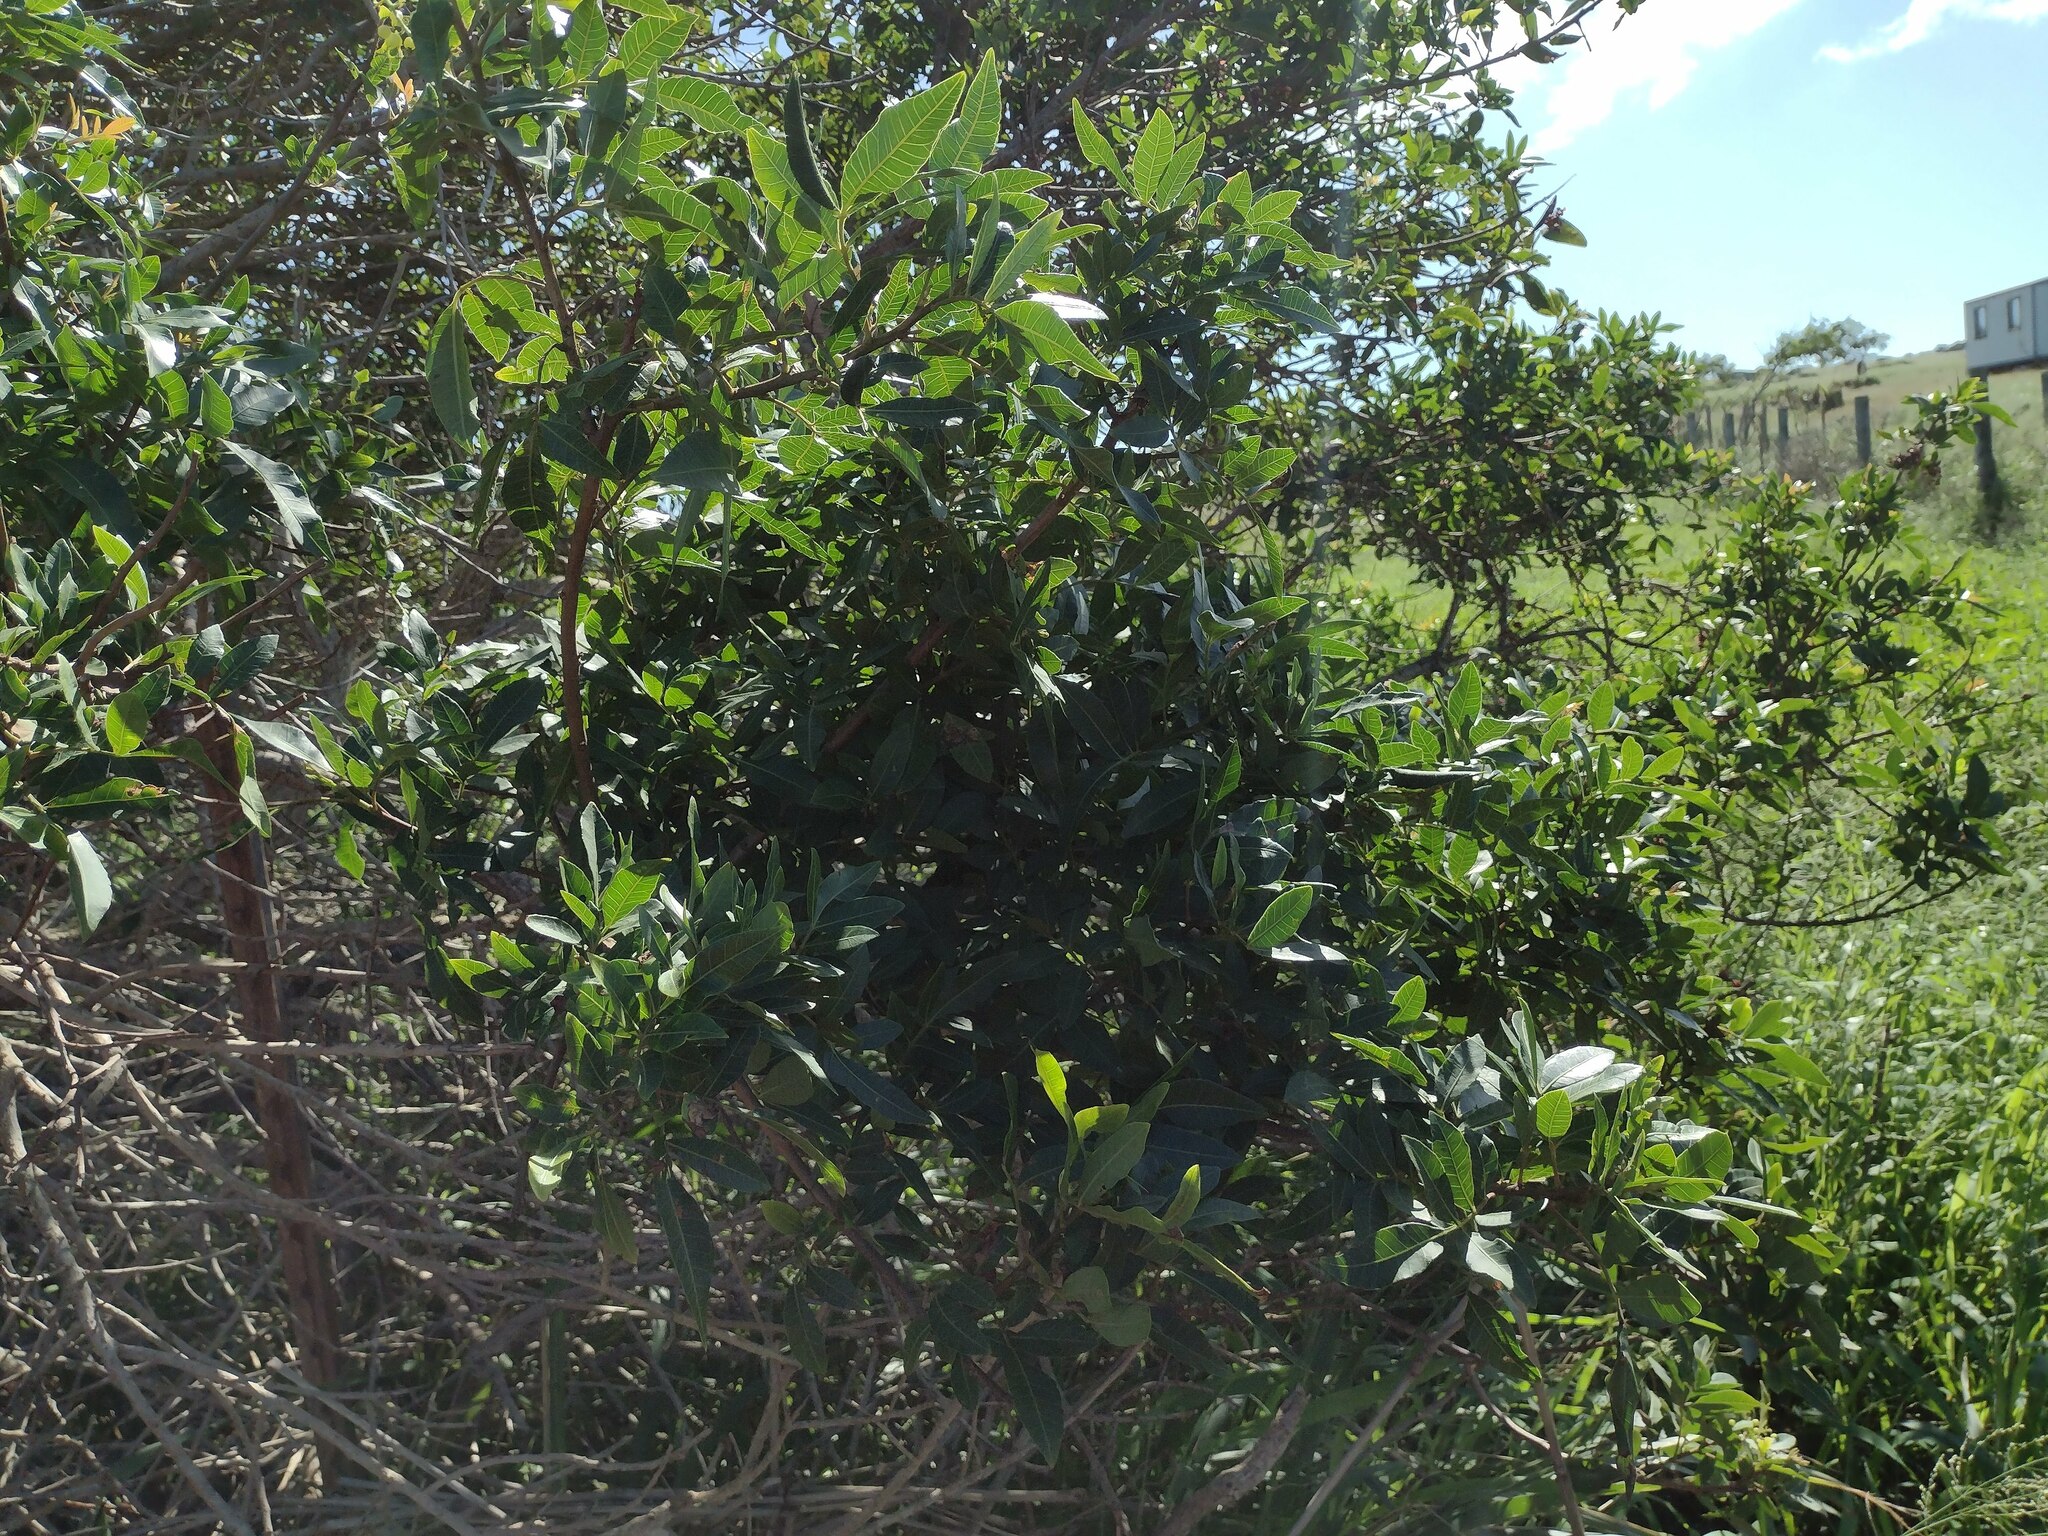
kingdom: Plantae
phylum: Tracheophyta
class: Magnoliopsida
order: Sapindales
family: Anacardiaceae
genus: Schinus
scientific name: Schinus terebinthifolia
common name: Brazilian peppertree
